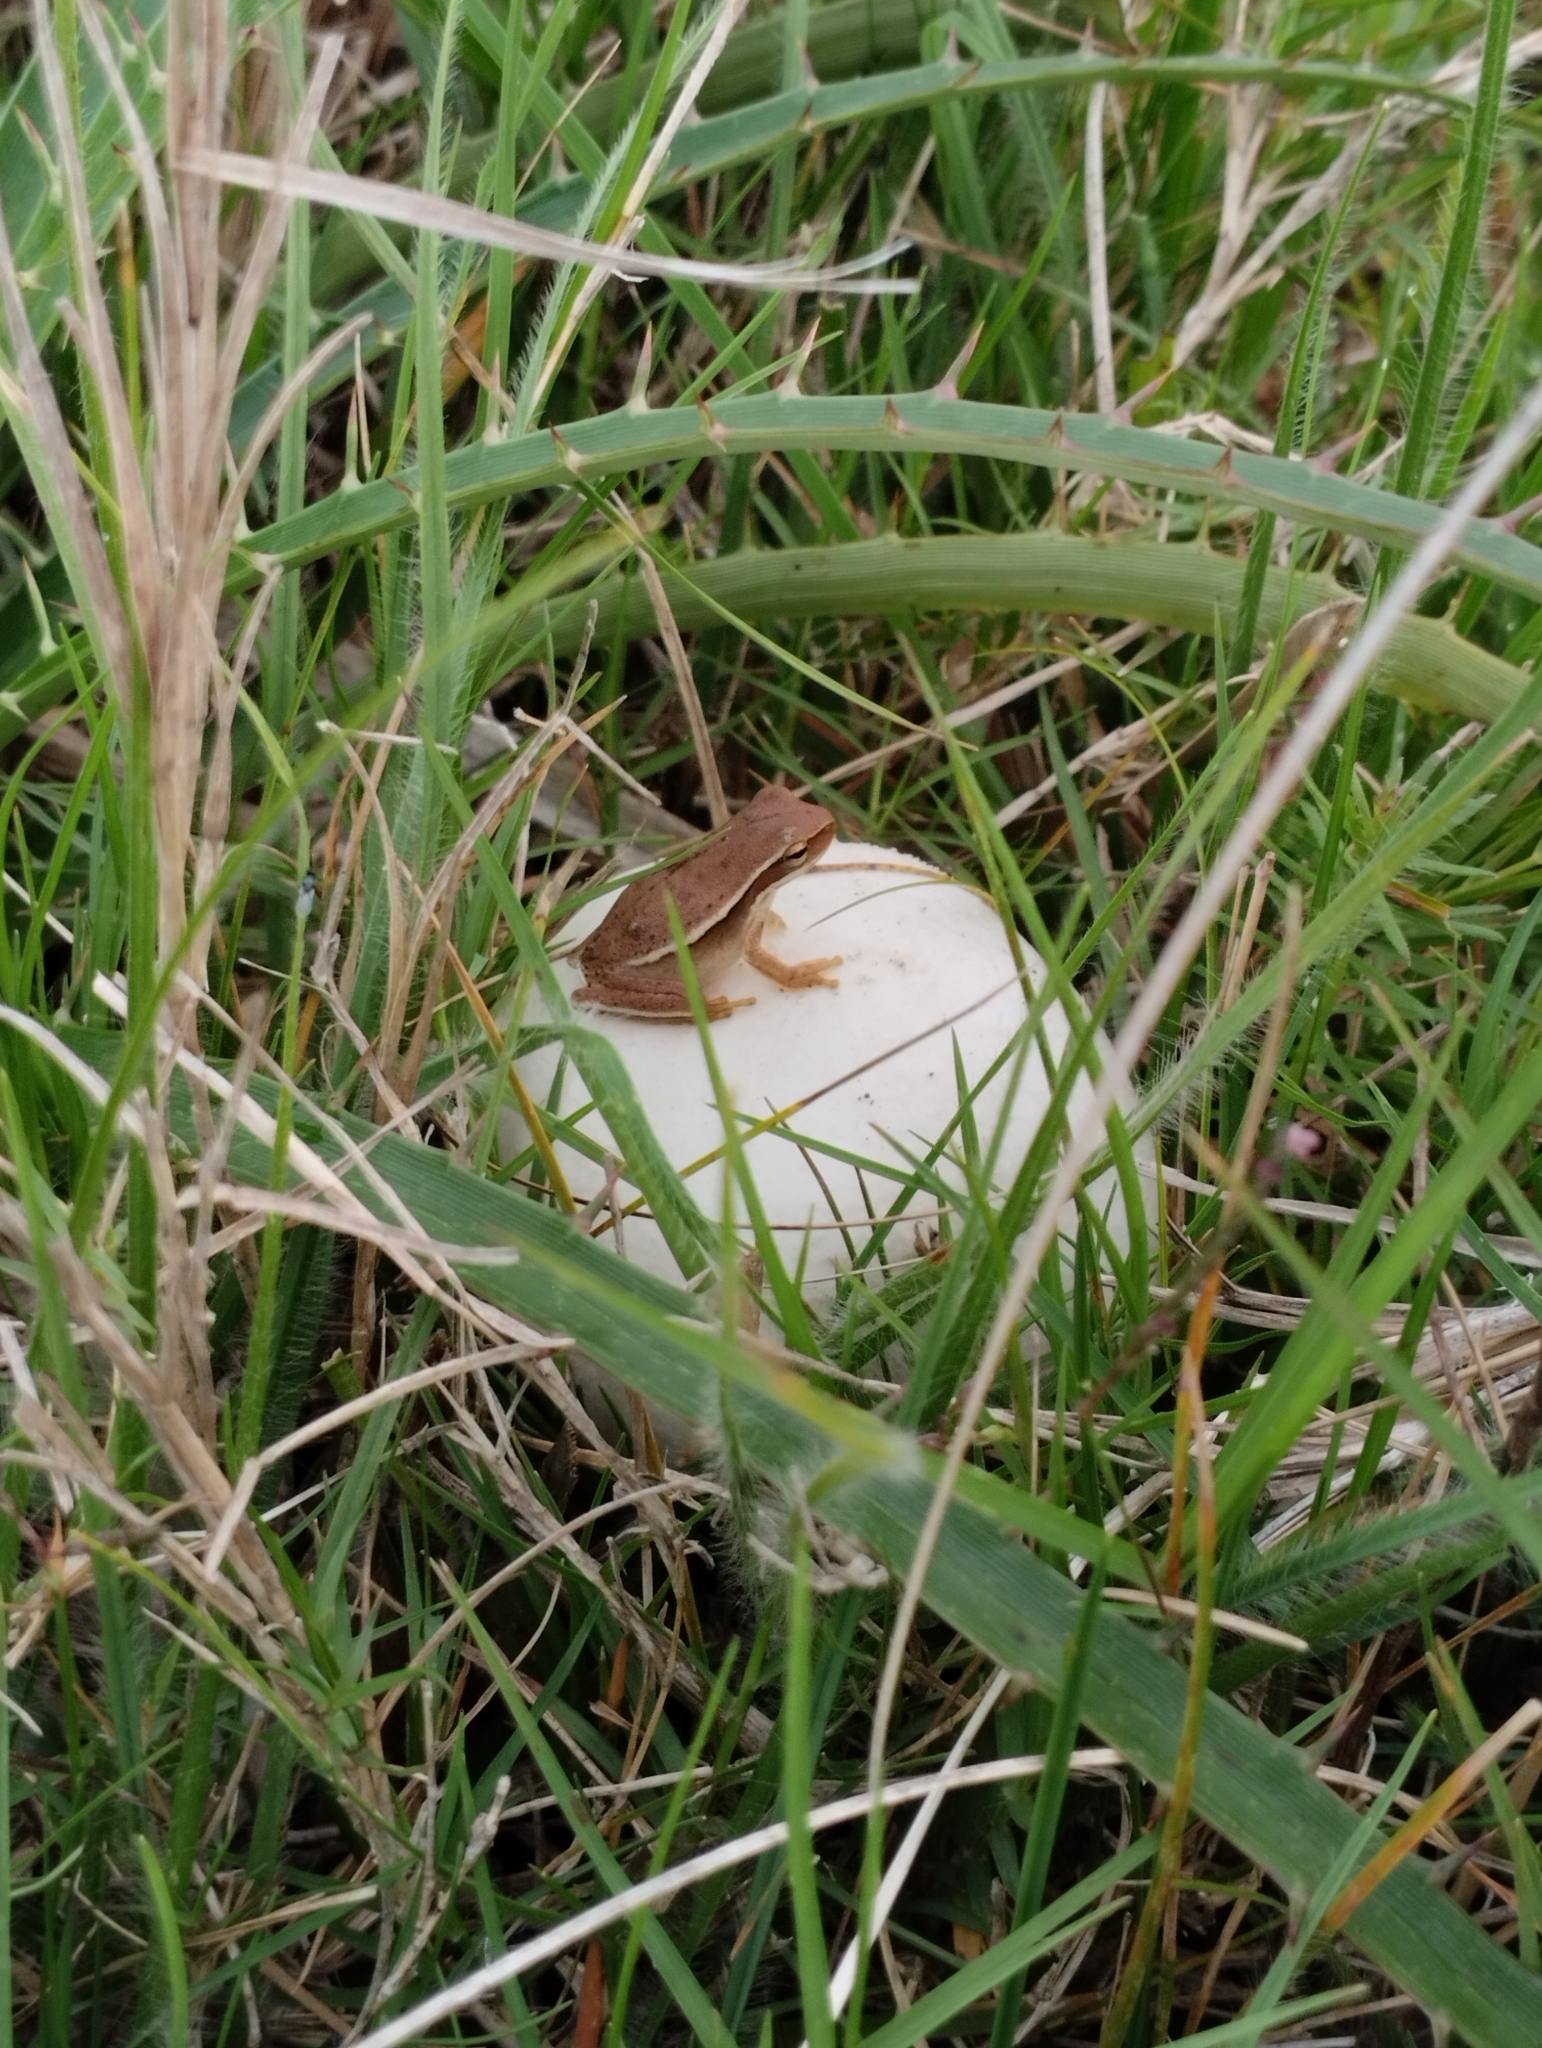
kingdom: Animalia
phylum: Chordata
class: Amphibia
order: Anura
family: Hylidae
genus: Boana
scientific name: Boana pulchella
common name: Montevideo treefrog
